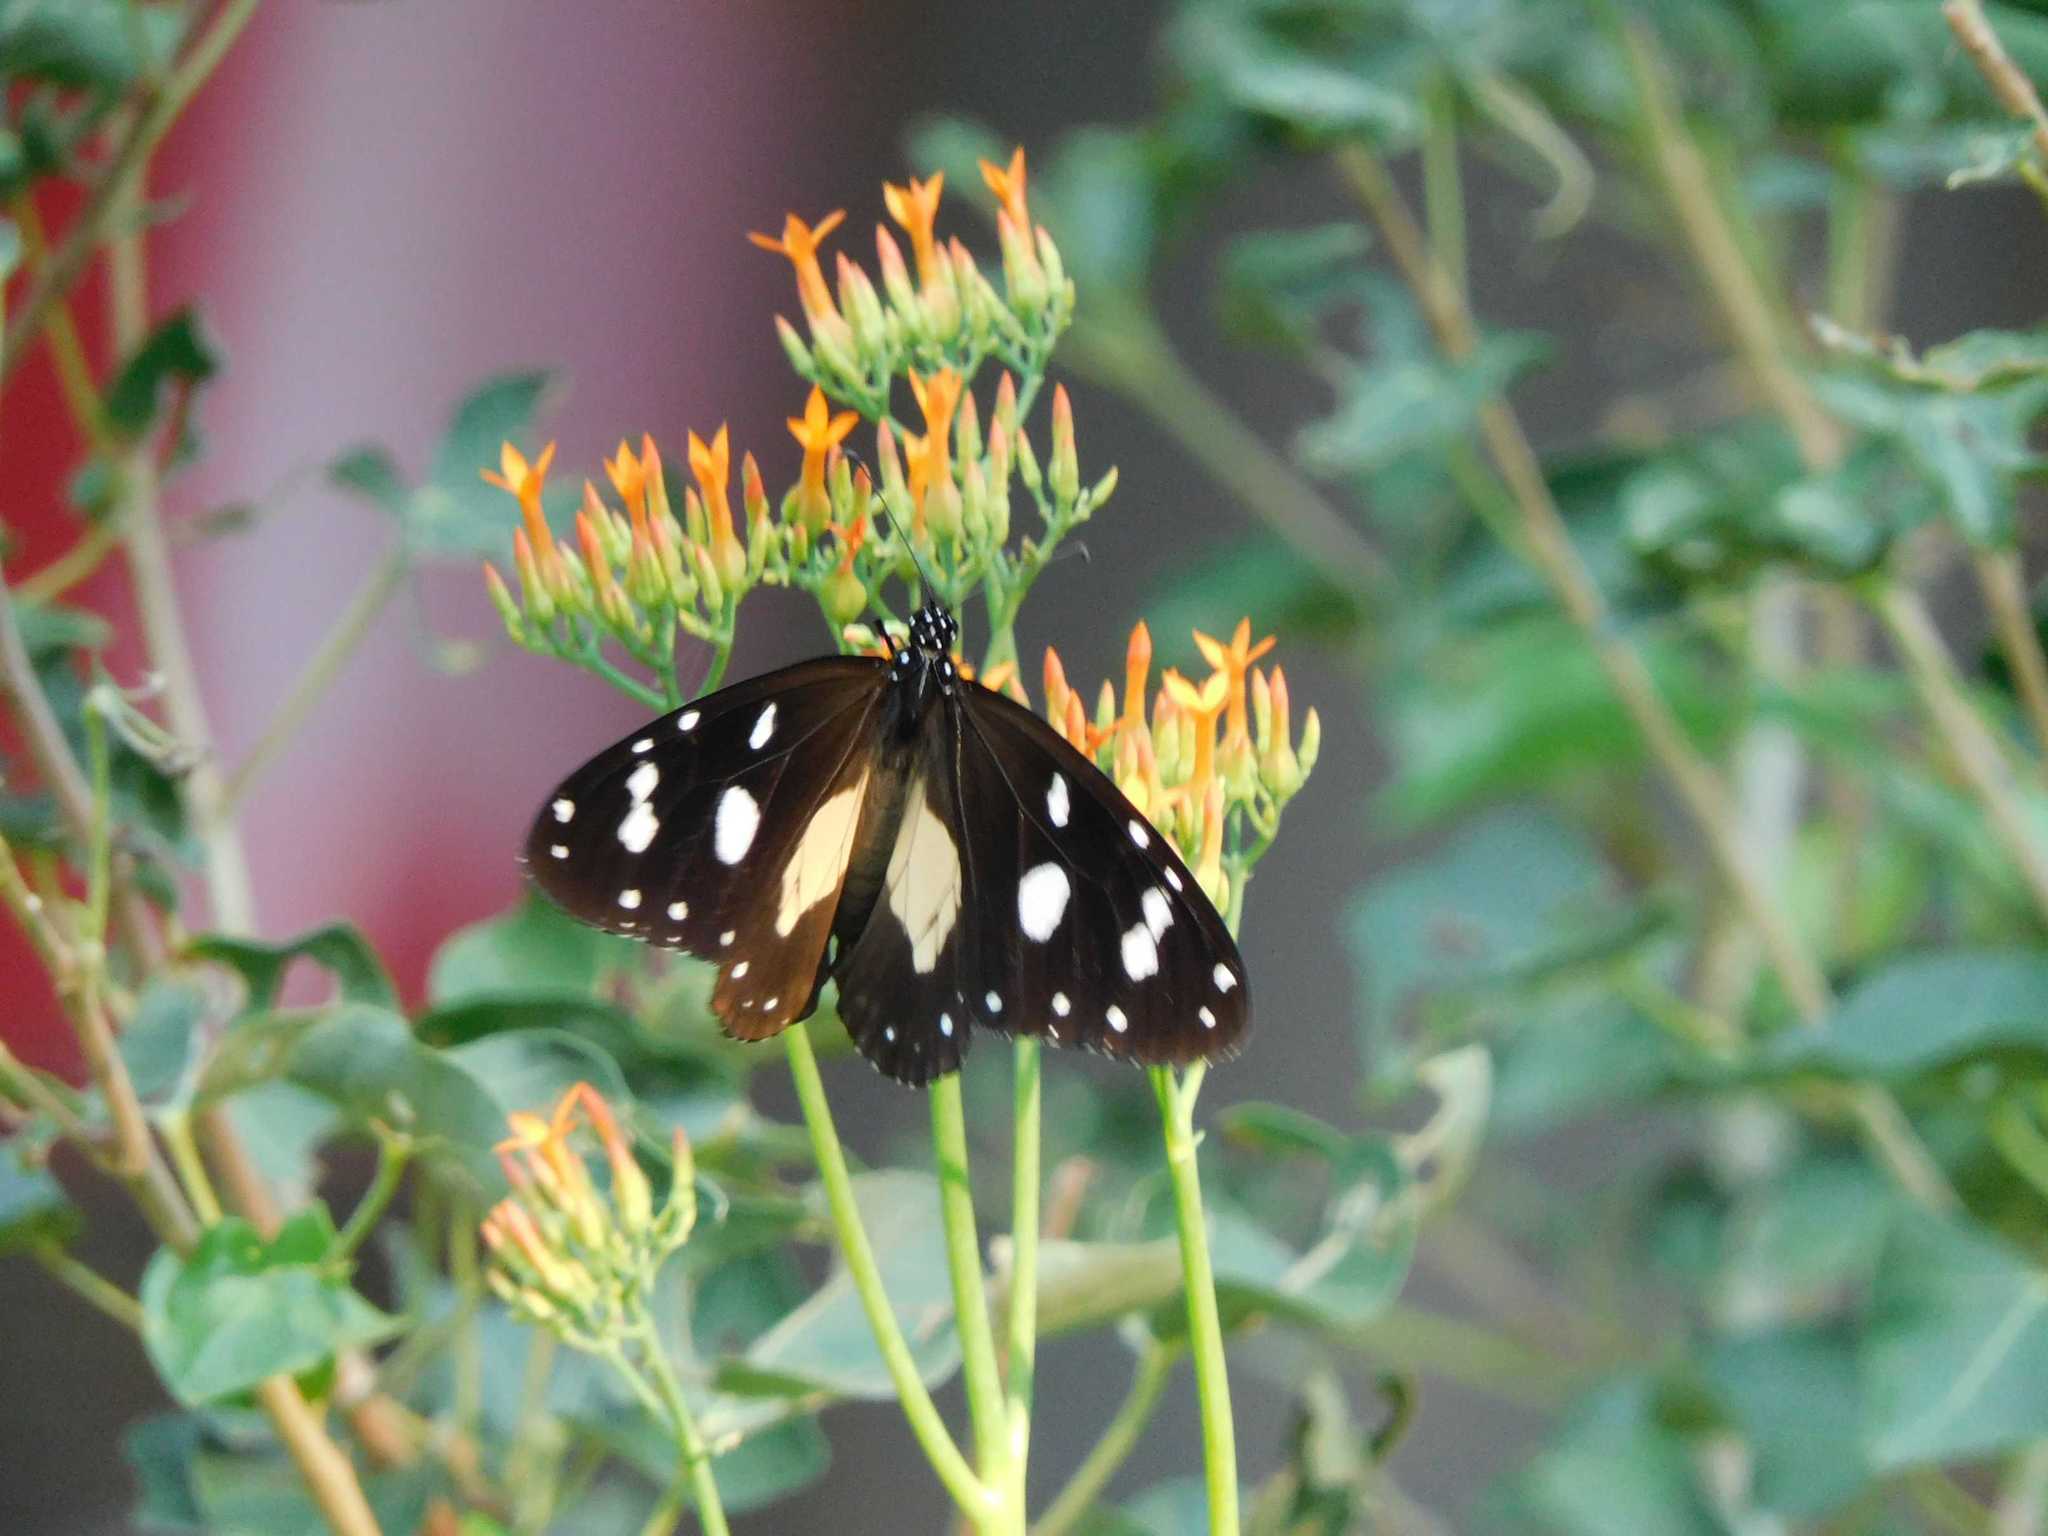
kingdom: Animalia
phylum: Arthropoda
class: Insecta
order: Lepidoptera
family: Nymphalidae
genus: Amauris
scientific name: Amauris albimaculata
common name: Layman
